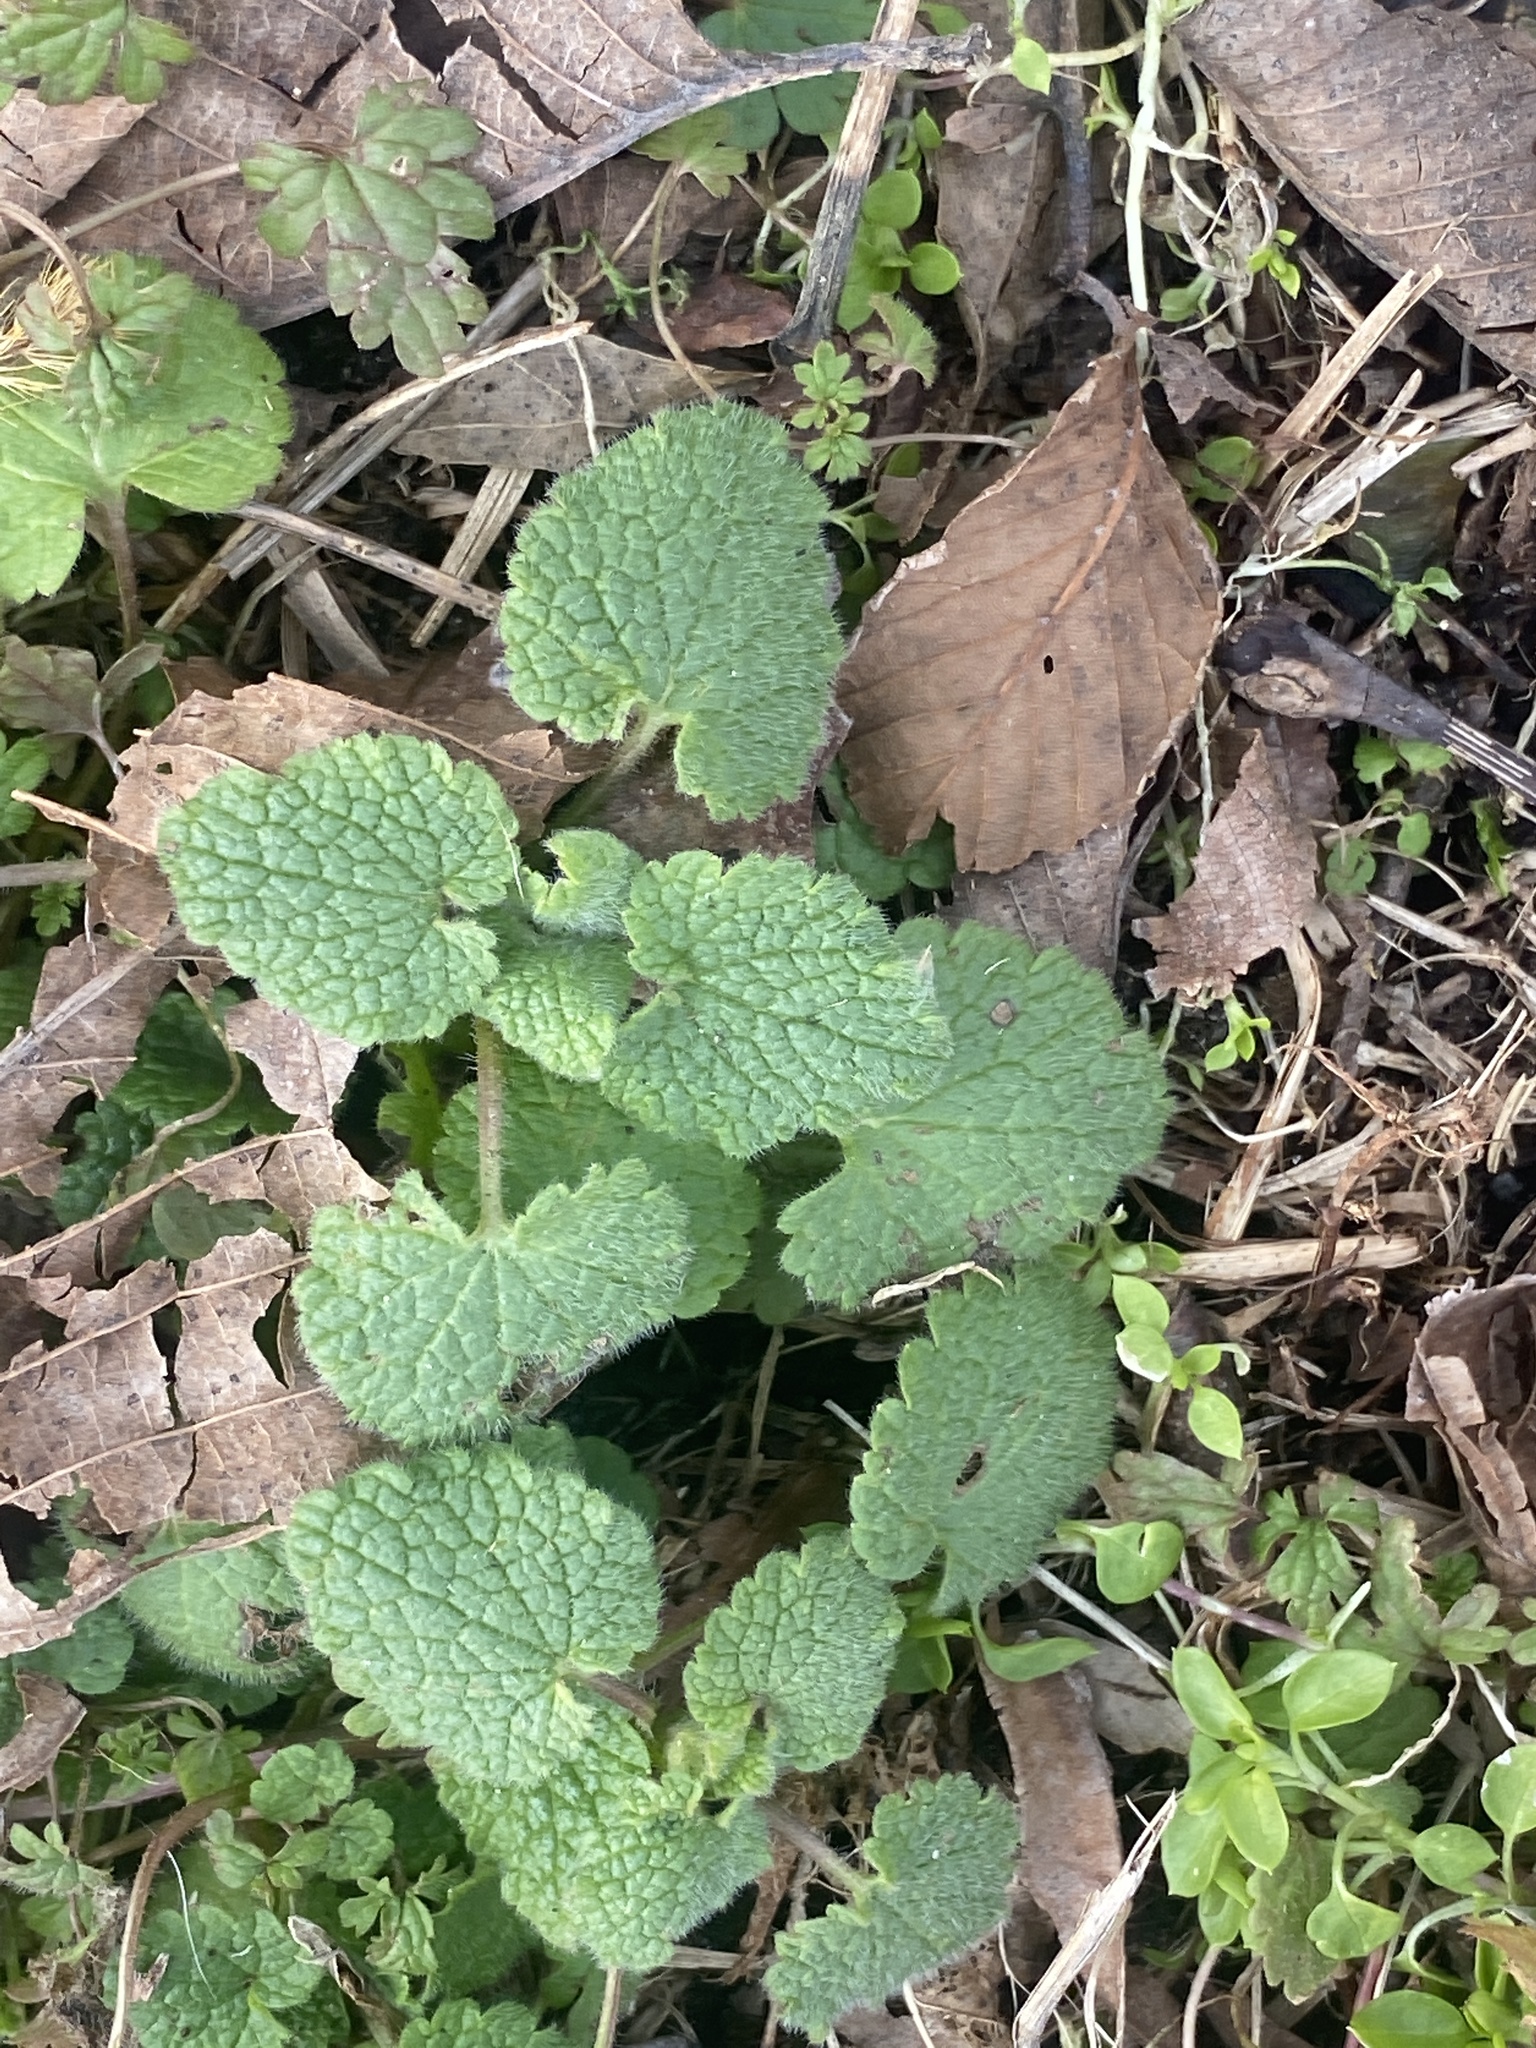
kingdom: Plantae
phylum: Tracheophyta
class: Magnoliopsida
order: Lamiales
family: Lamiaceae
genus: Lamium
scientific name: Lamium purpureum
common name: Red dead-nettle
